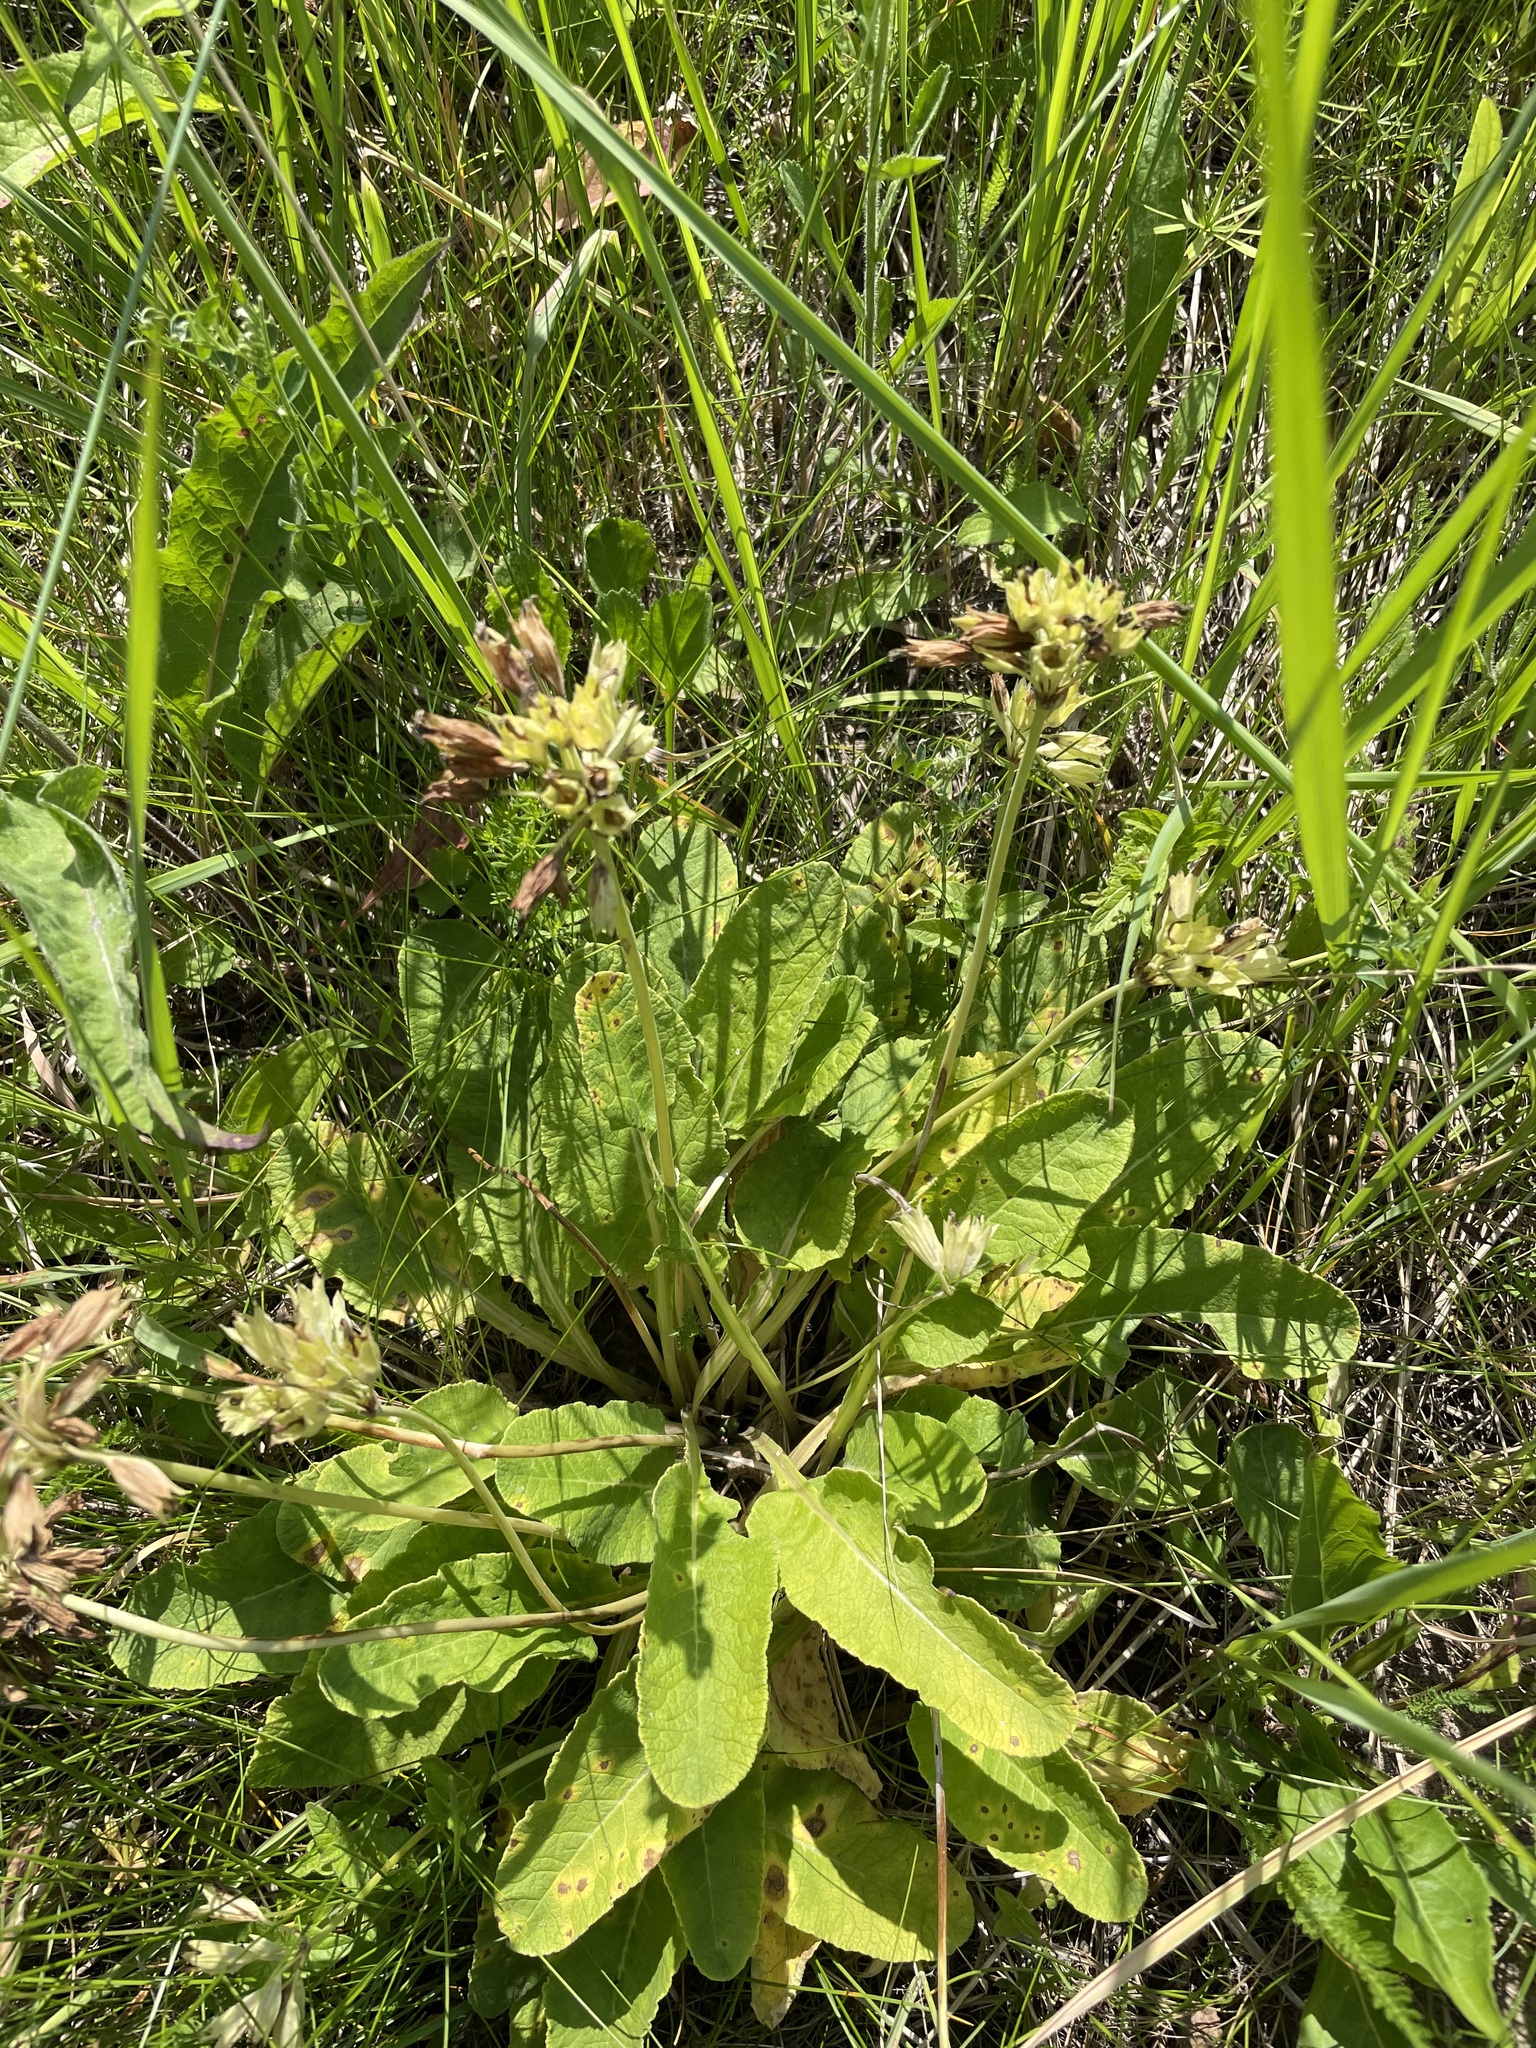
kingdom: Plantae
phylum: Tracheophyta
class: Magnoliopsida
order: Ericales
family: Primulaceae
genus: Primula
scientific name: Primula veris
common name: Cowslip
